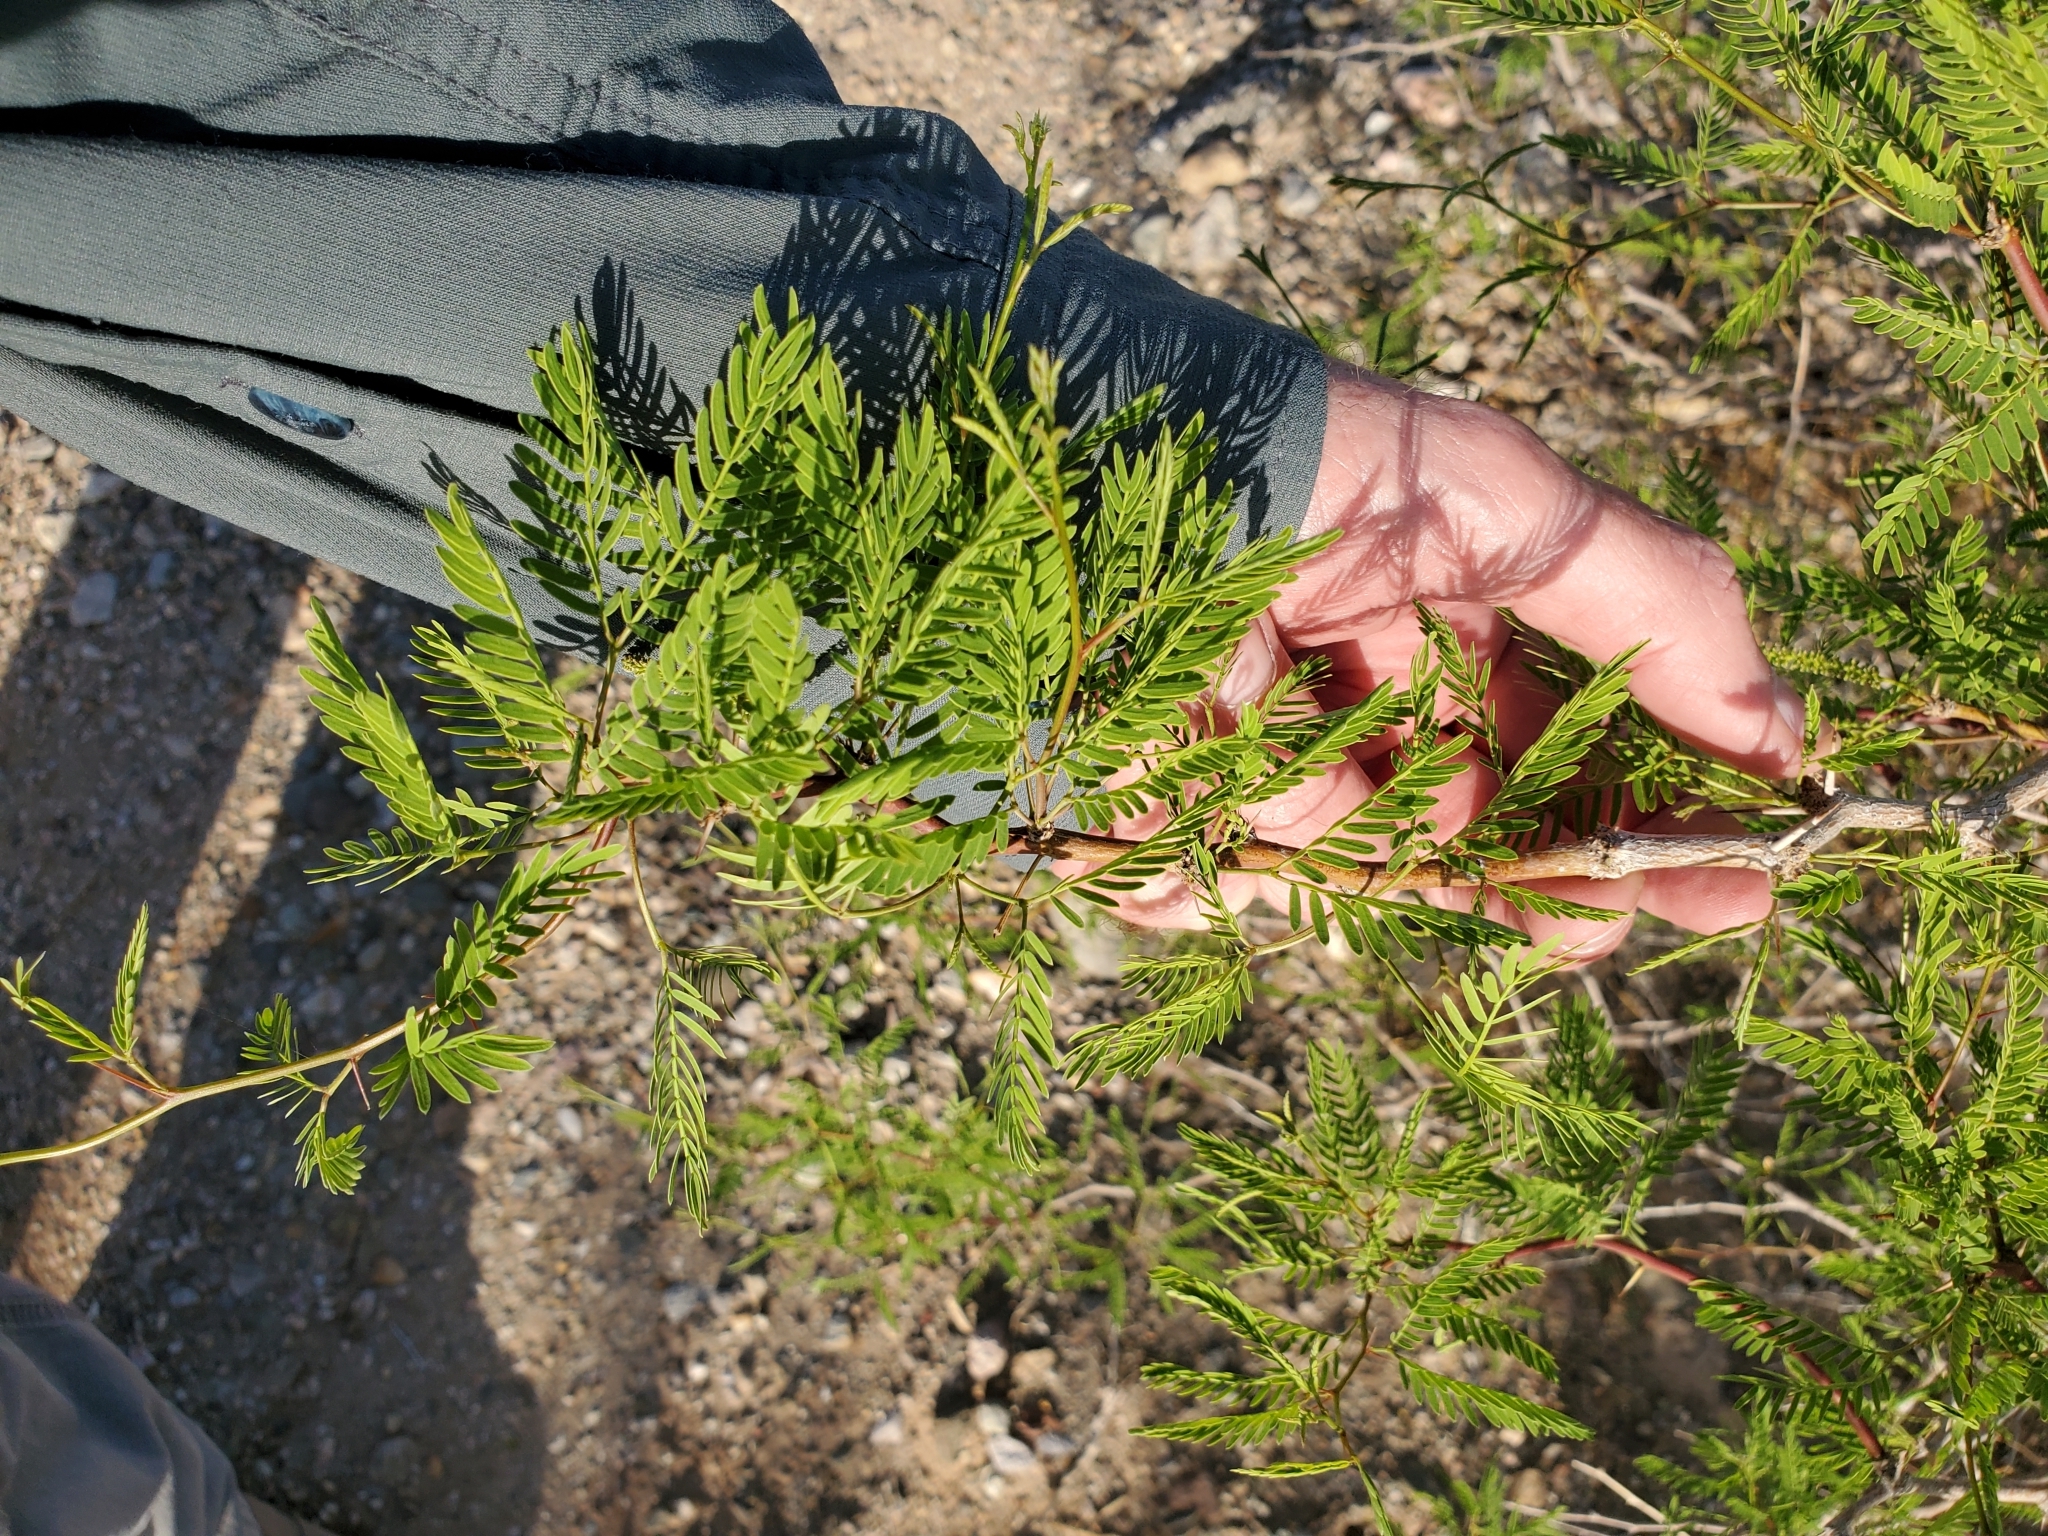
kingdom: Plantae
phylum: Tracheophyta
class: Magnoliopsida
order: Fabales
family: Fabaceae
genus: Prosopis
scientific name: Prosopis pubescens
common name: Screw-bean
